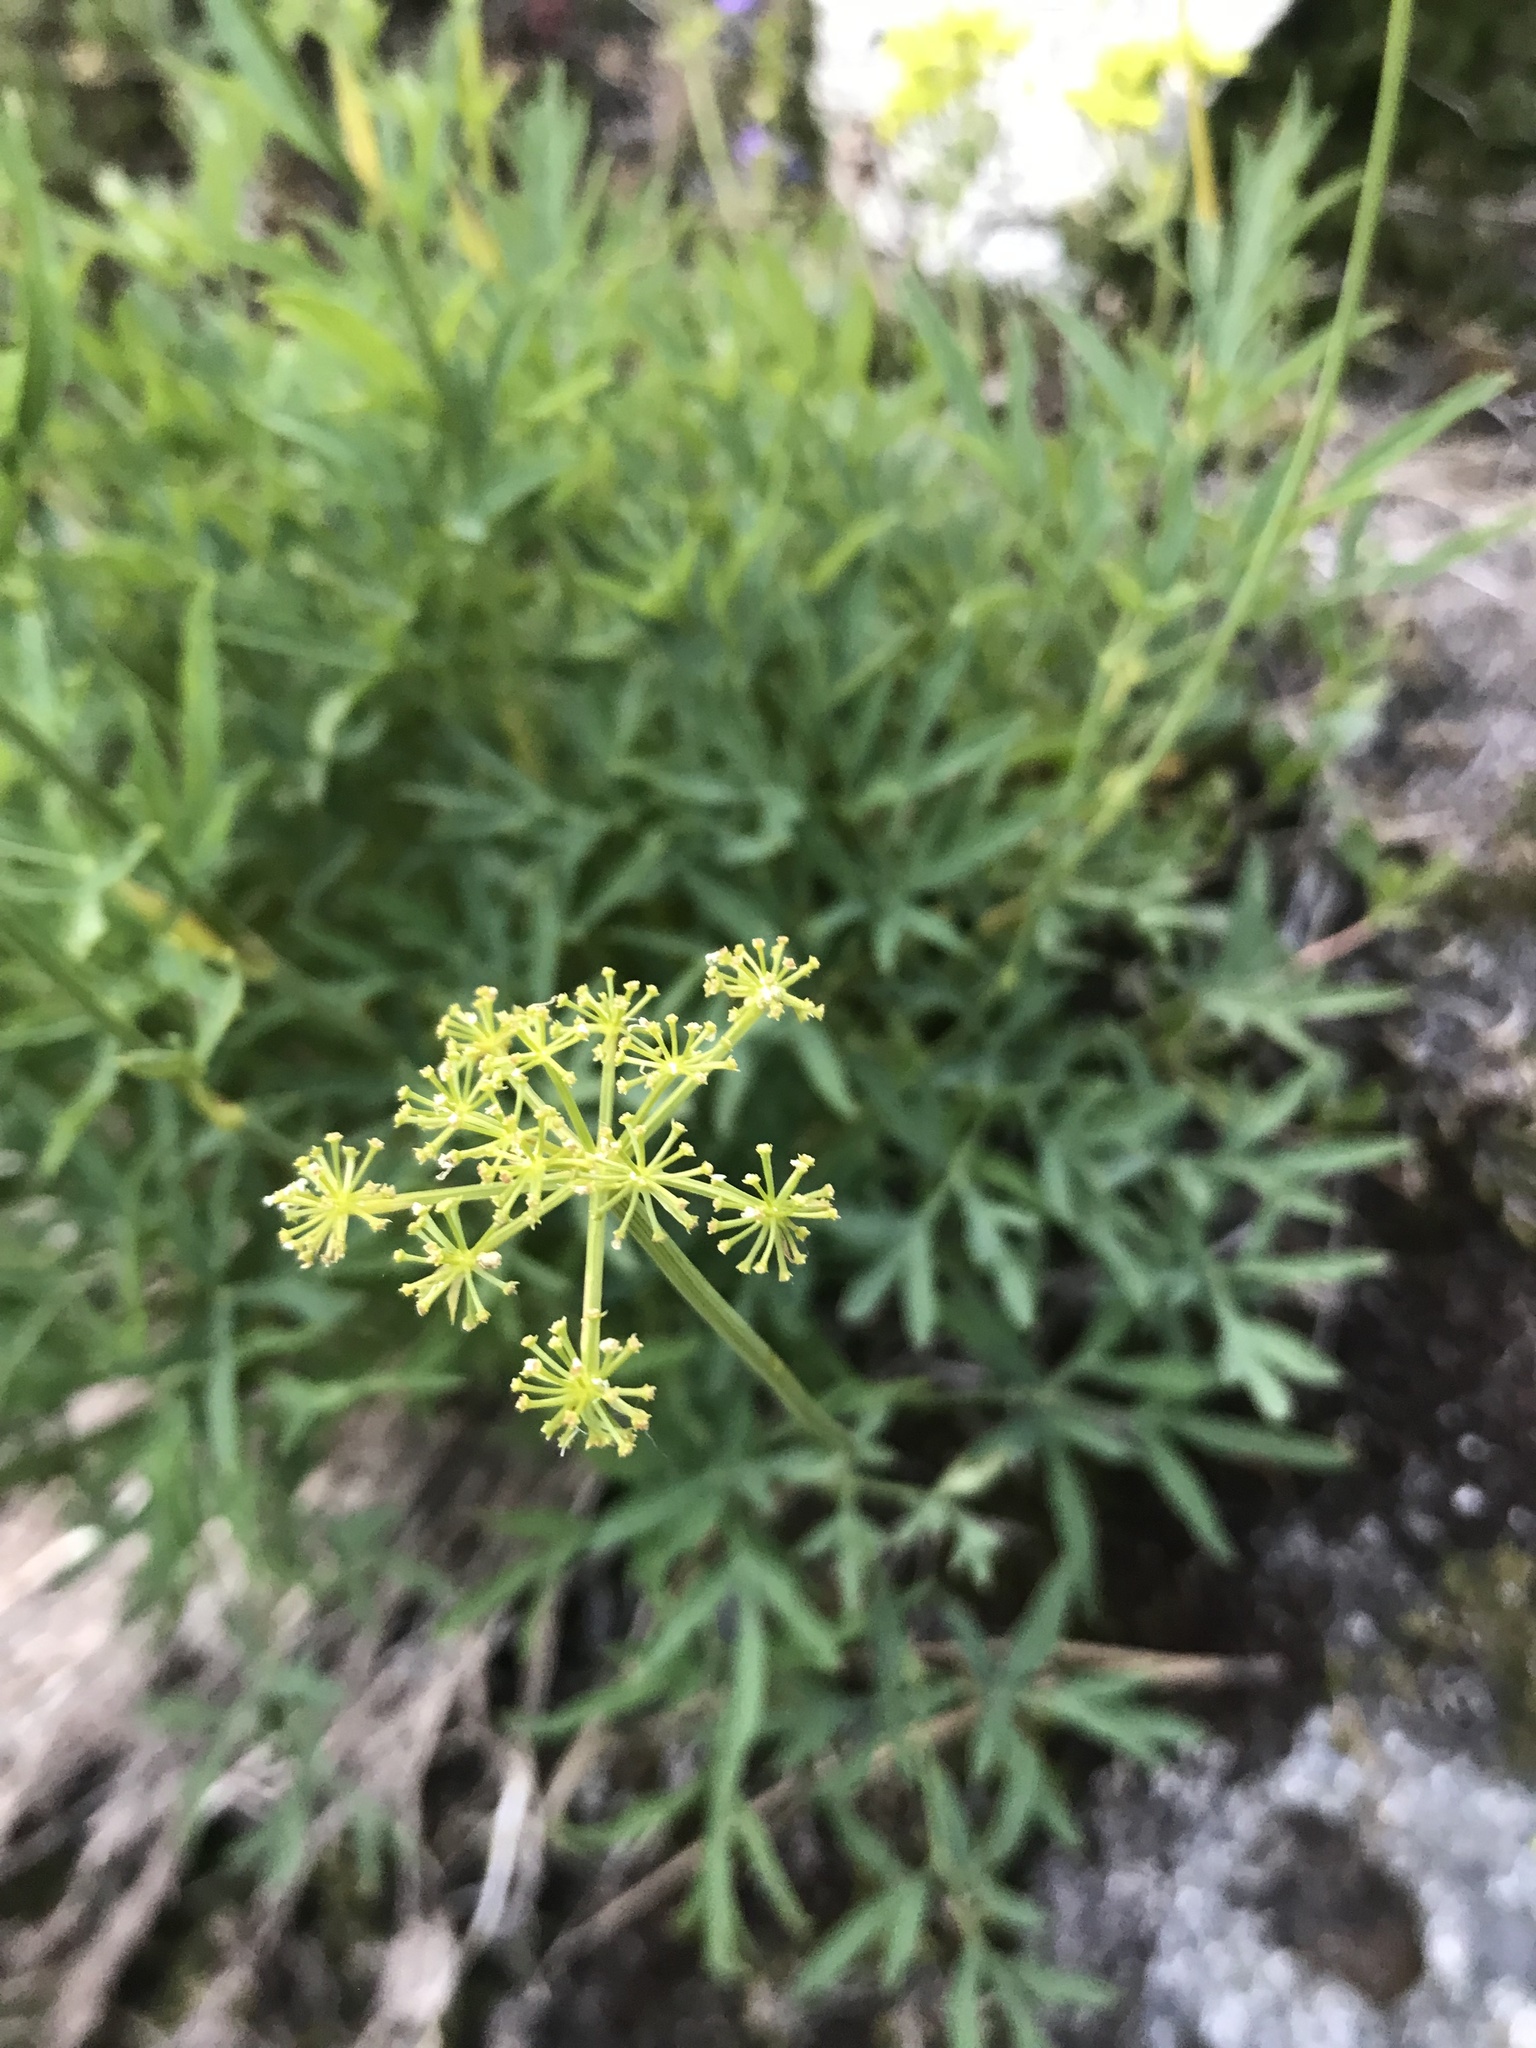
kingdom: Plantae
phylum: Tracheophyta
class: Magnoliopsida
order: Apiales
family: Apiaceae
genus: Lomatium
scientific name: Lomatium brandegeei
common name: Brandegee's desert-parsley
